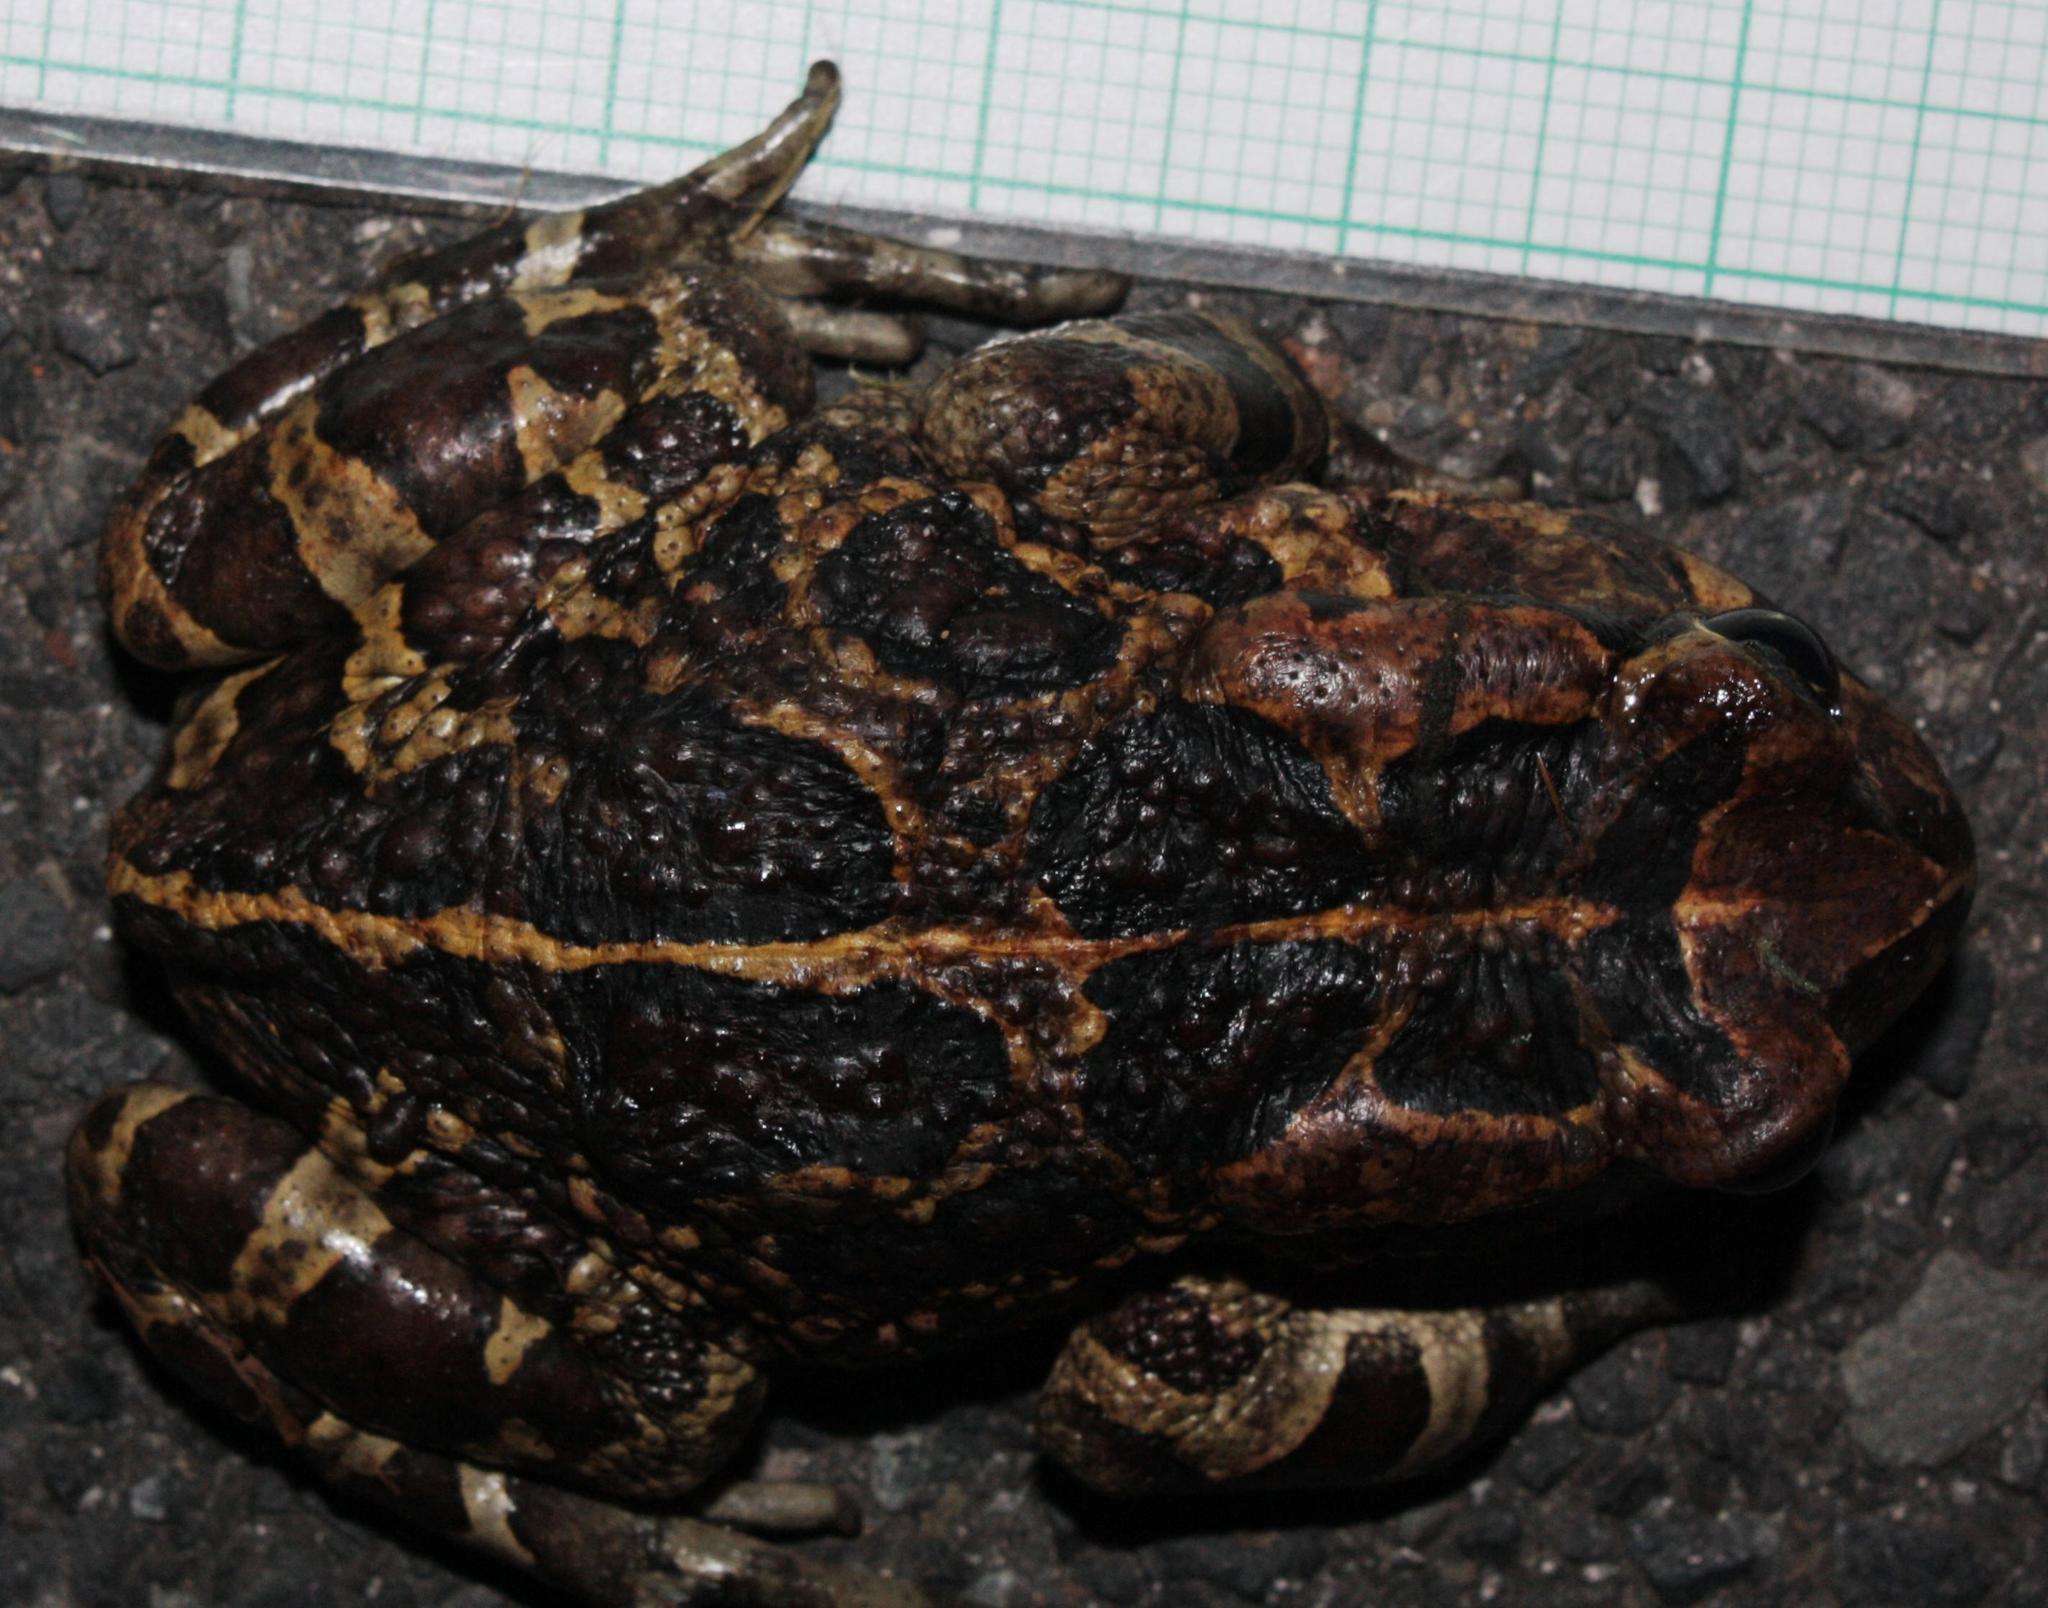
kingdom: Animalia
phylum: Chordata
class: Amphibia
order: Anura
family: Bufonidae
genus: Sclerophrys
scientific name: Sclerophrys pantherina
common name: Panther toad
